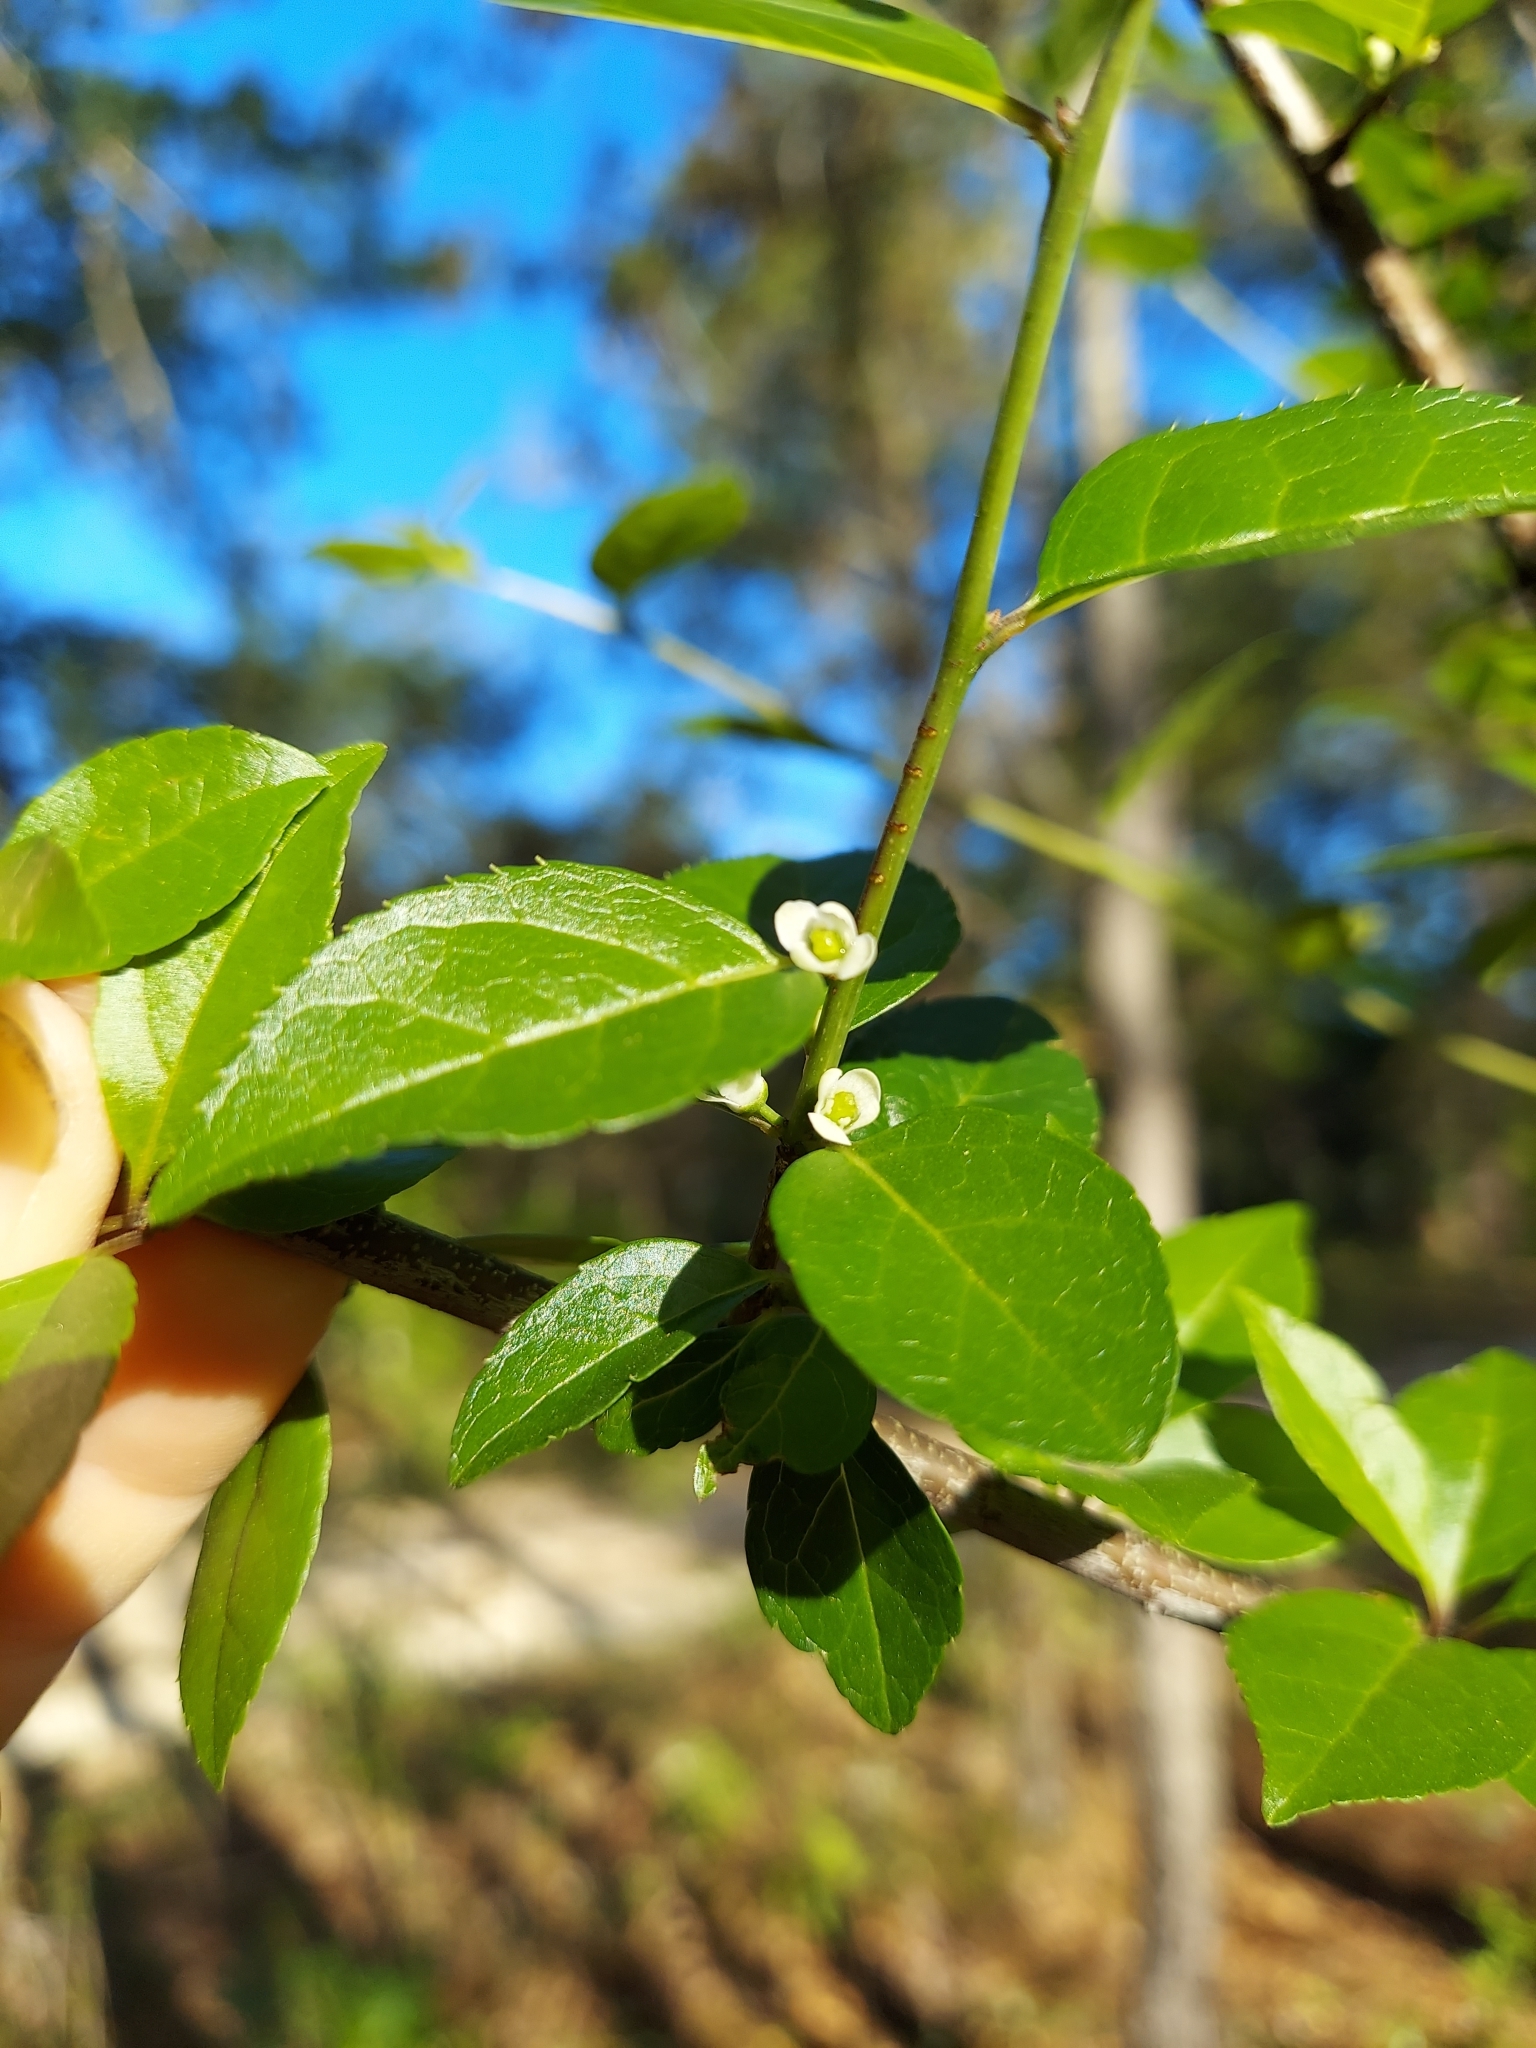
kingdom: Plantae
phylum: Tracheophyta
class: Magnoliopsida
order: Aquifoliales
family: Aquifoliaceae
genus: Ilex
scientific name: Ilex ambigua
